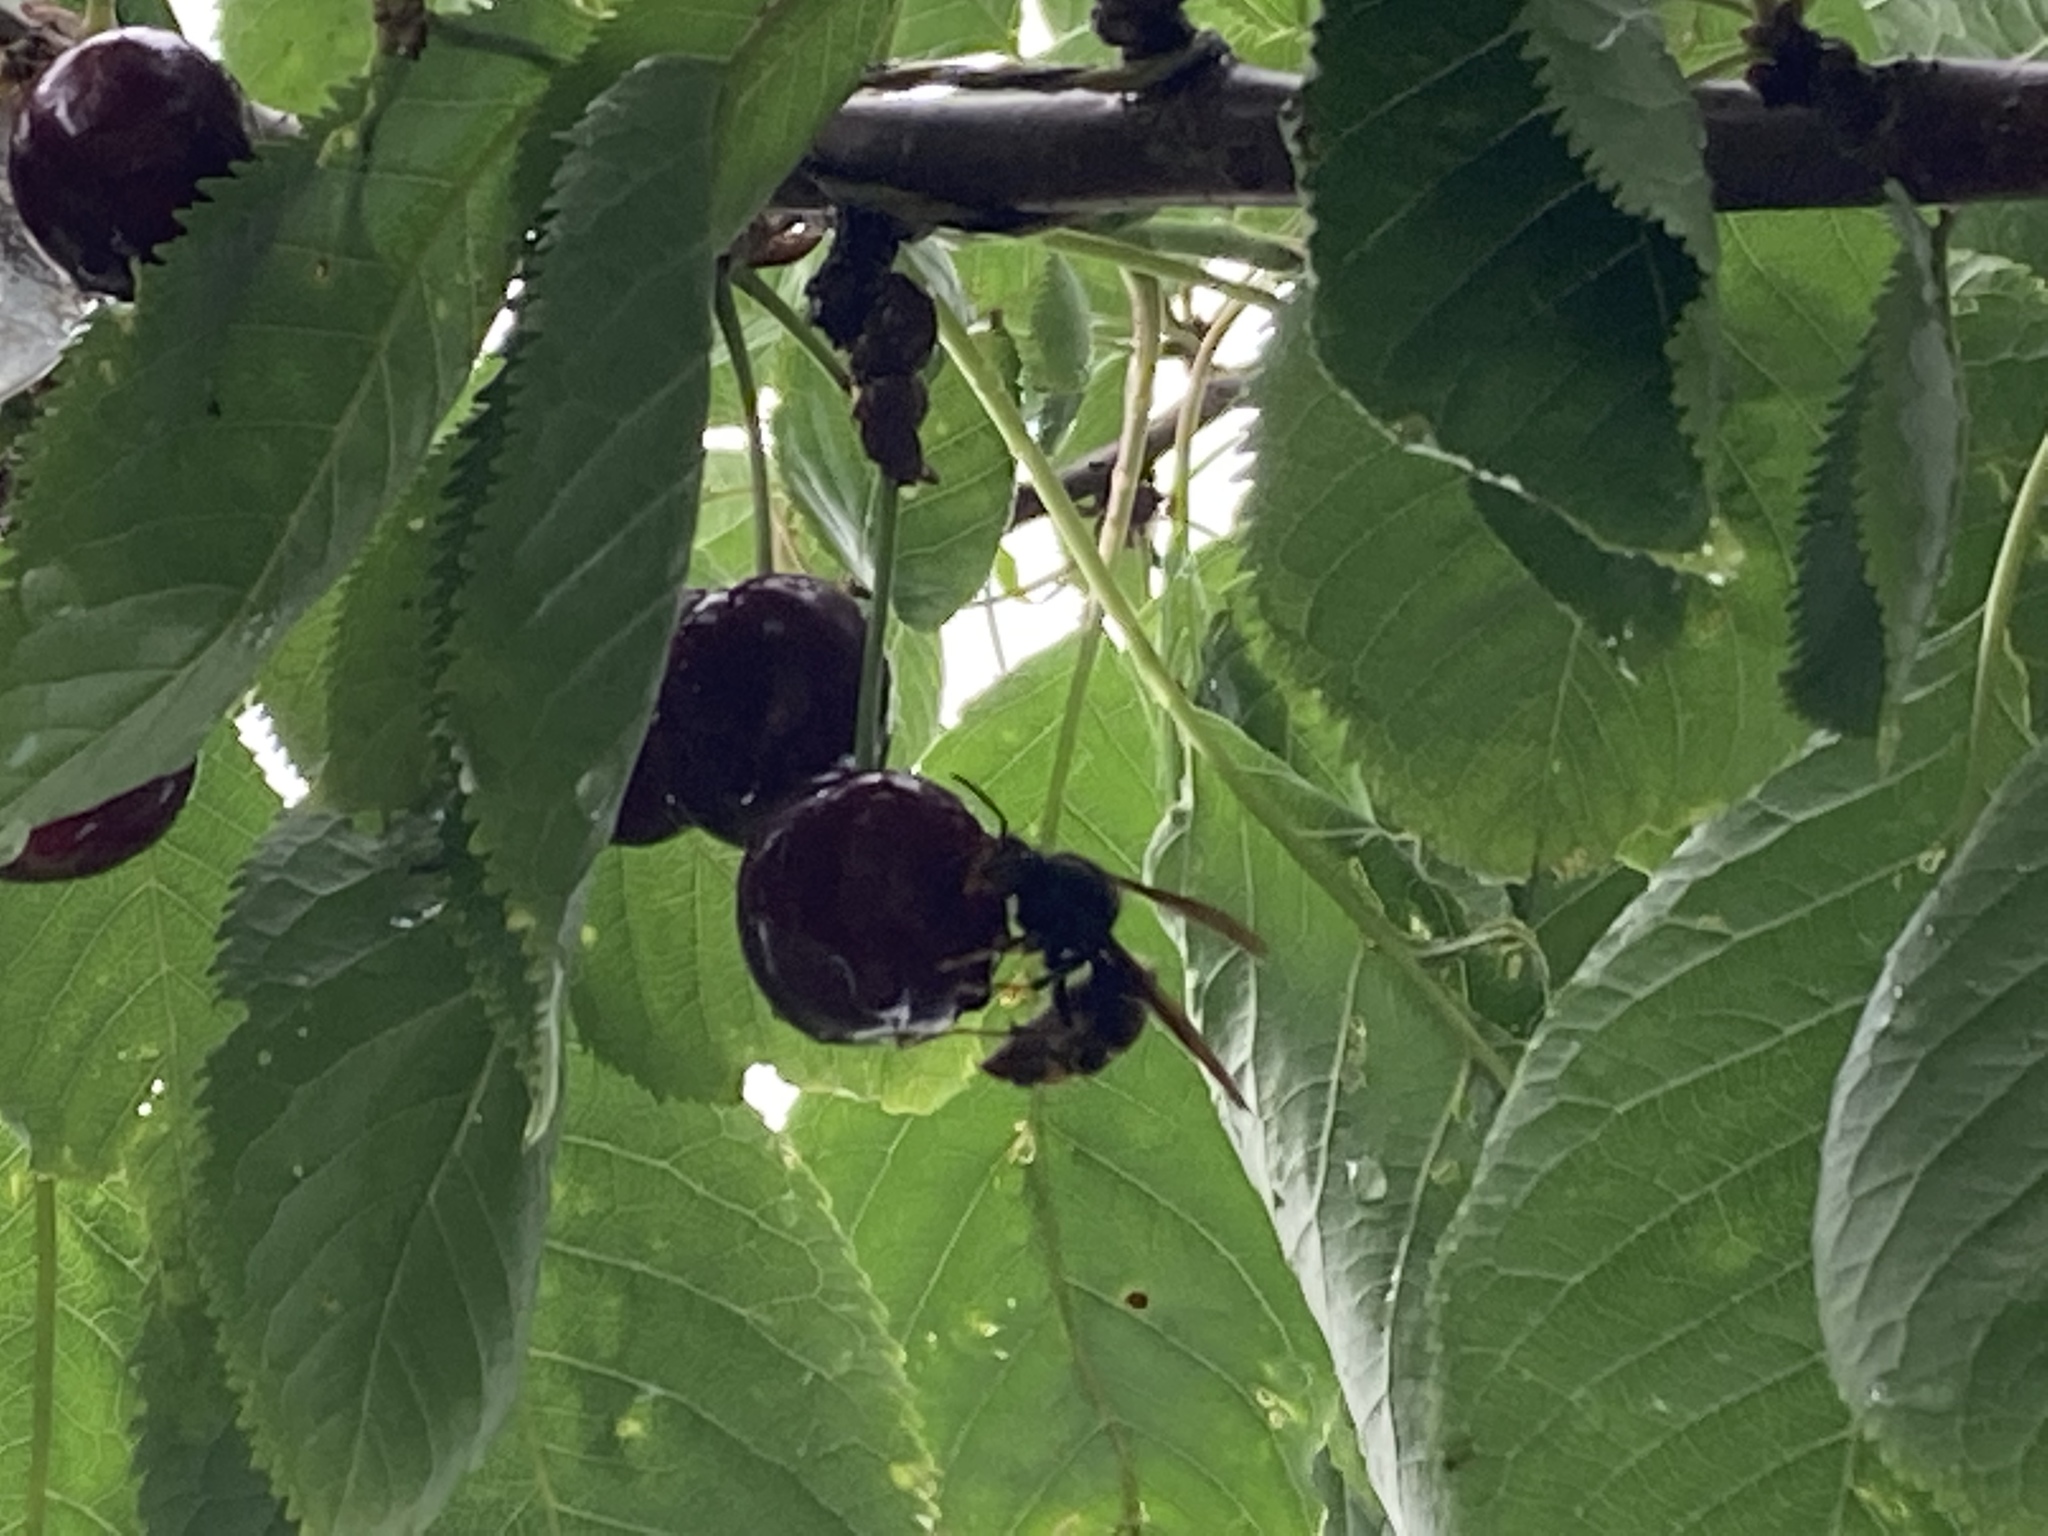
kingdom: Animalia
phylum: Arthropoda
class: Insecta
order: Hymenoptera
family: Vespidae
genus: Vespa
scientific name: Vespa velutina
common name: Asian hornet
